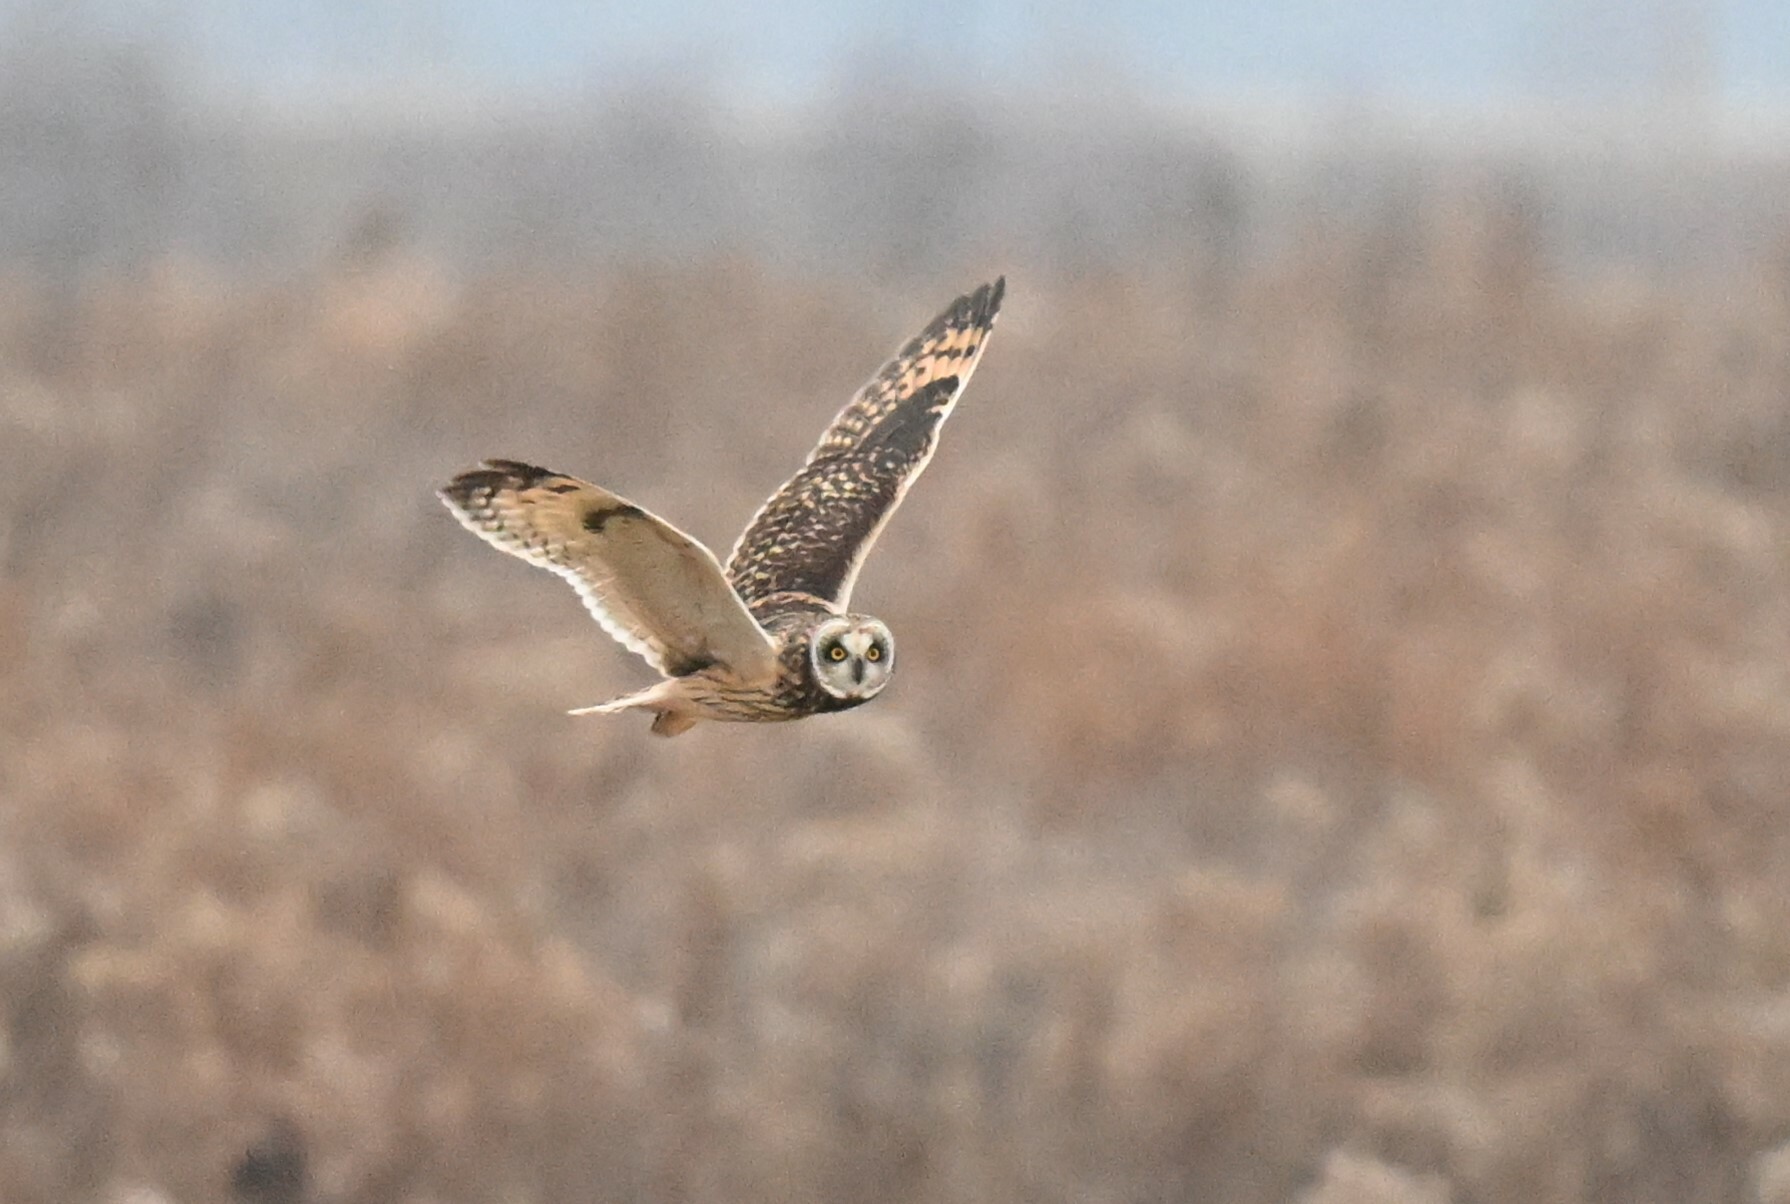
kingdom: Animalia
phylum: Chordata
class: Aves
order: Strigiformes
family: Strigidae
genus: Asio
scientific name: Asio flammeus
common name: Short-eared owl
